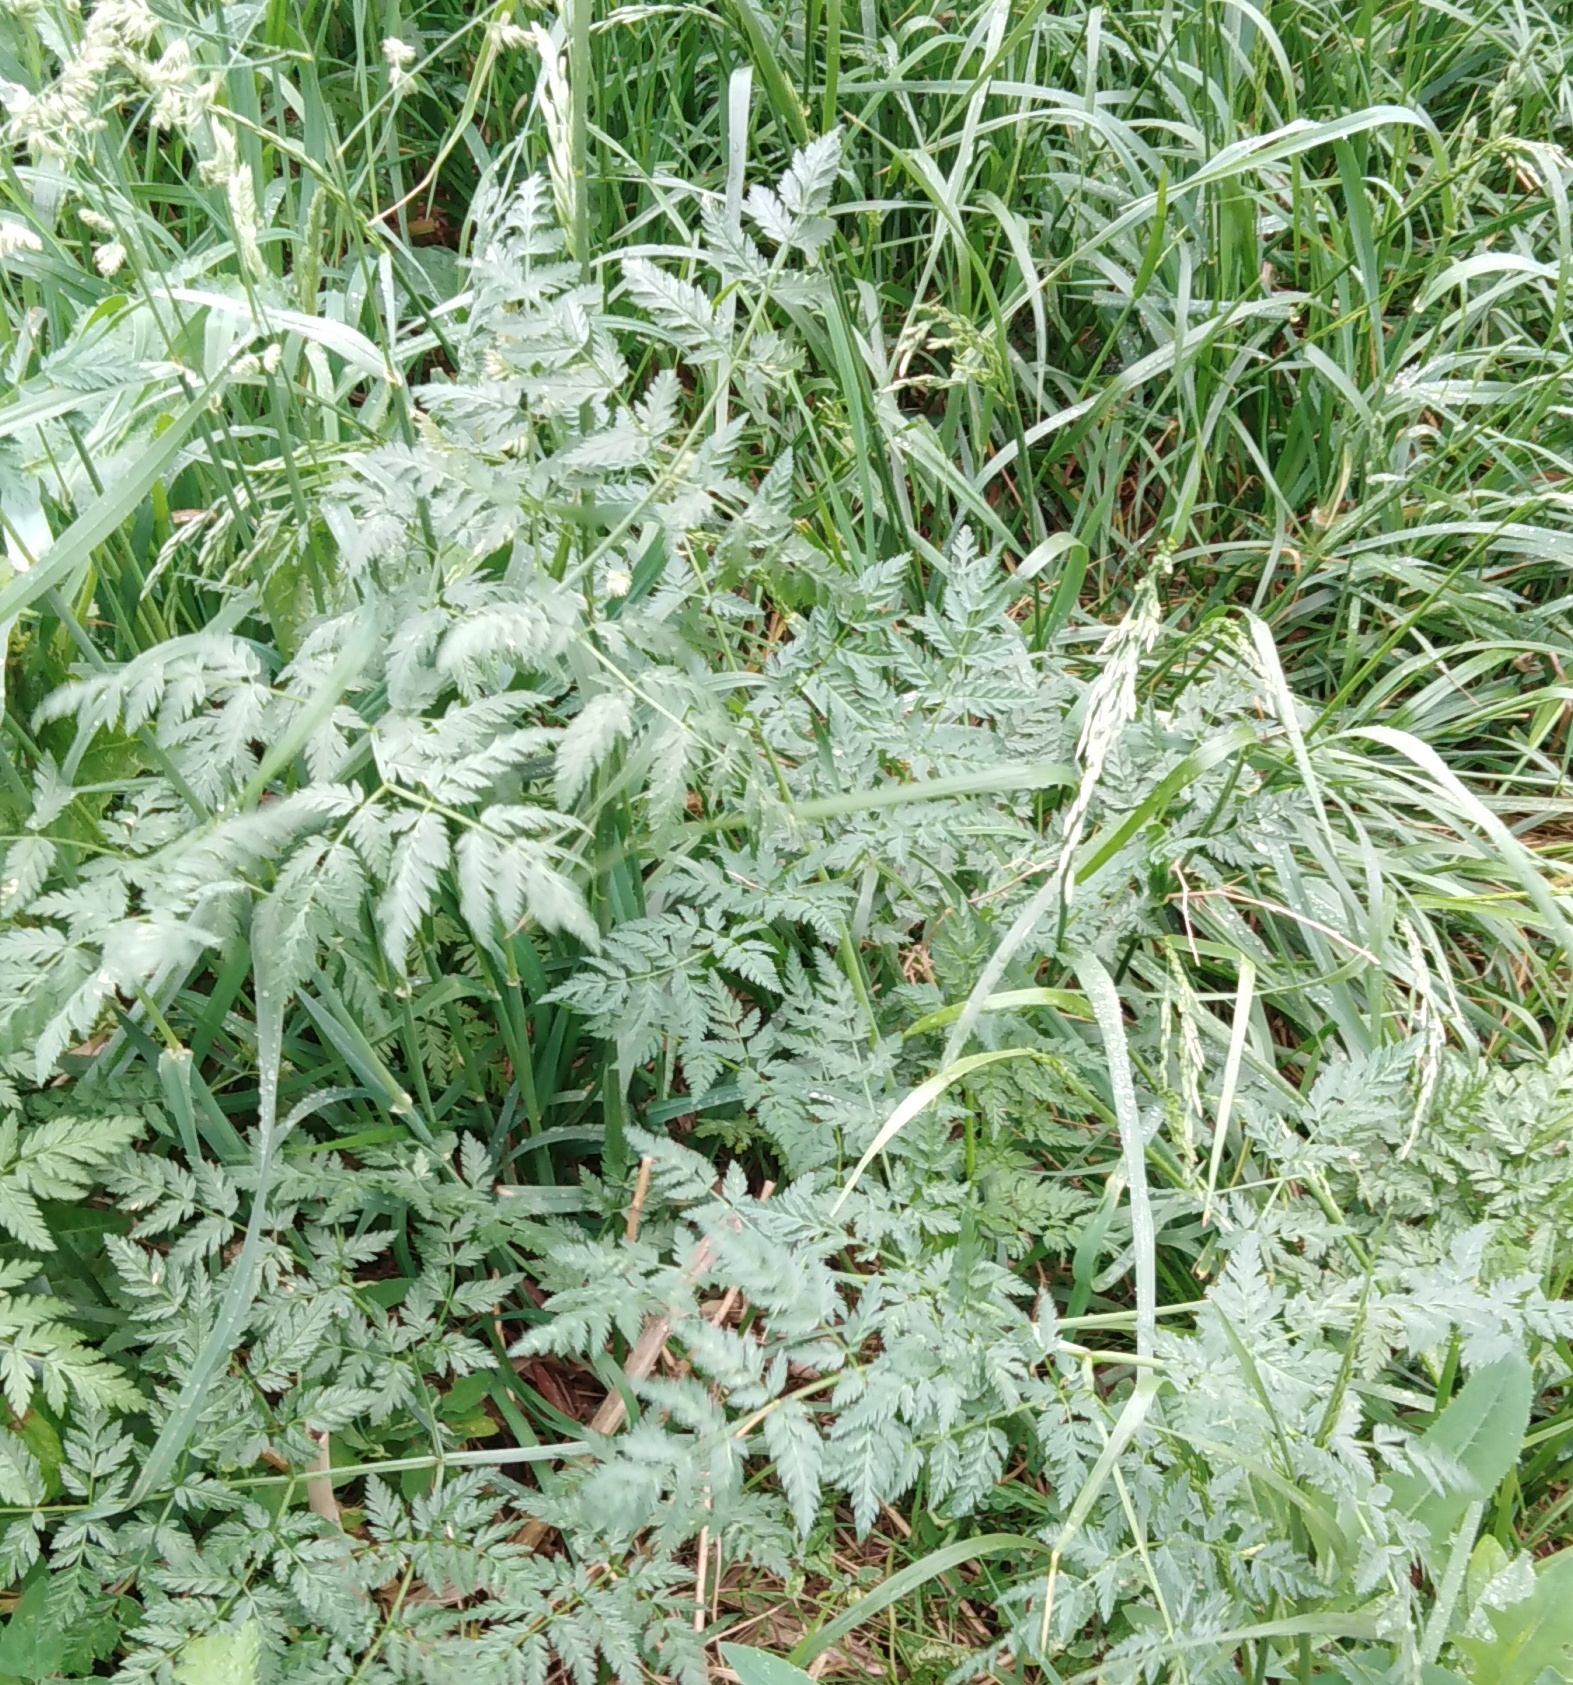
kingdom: Plantae
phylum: Tracheophyta
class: Magnoliopsida
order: Apiales
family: Apiaceae
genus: Anthriscus
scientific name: Anthriscus sylvestris
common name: Cow parsley
